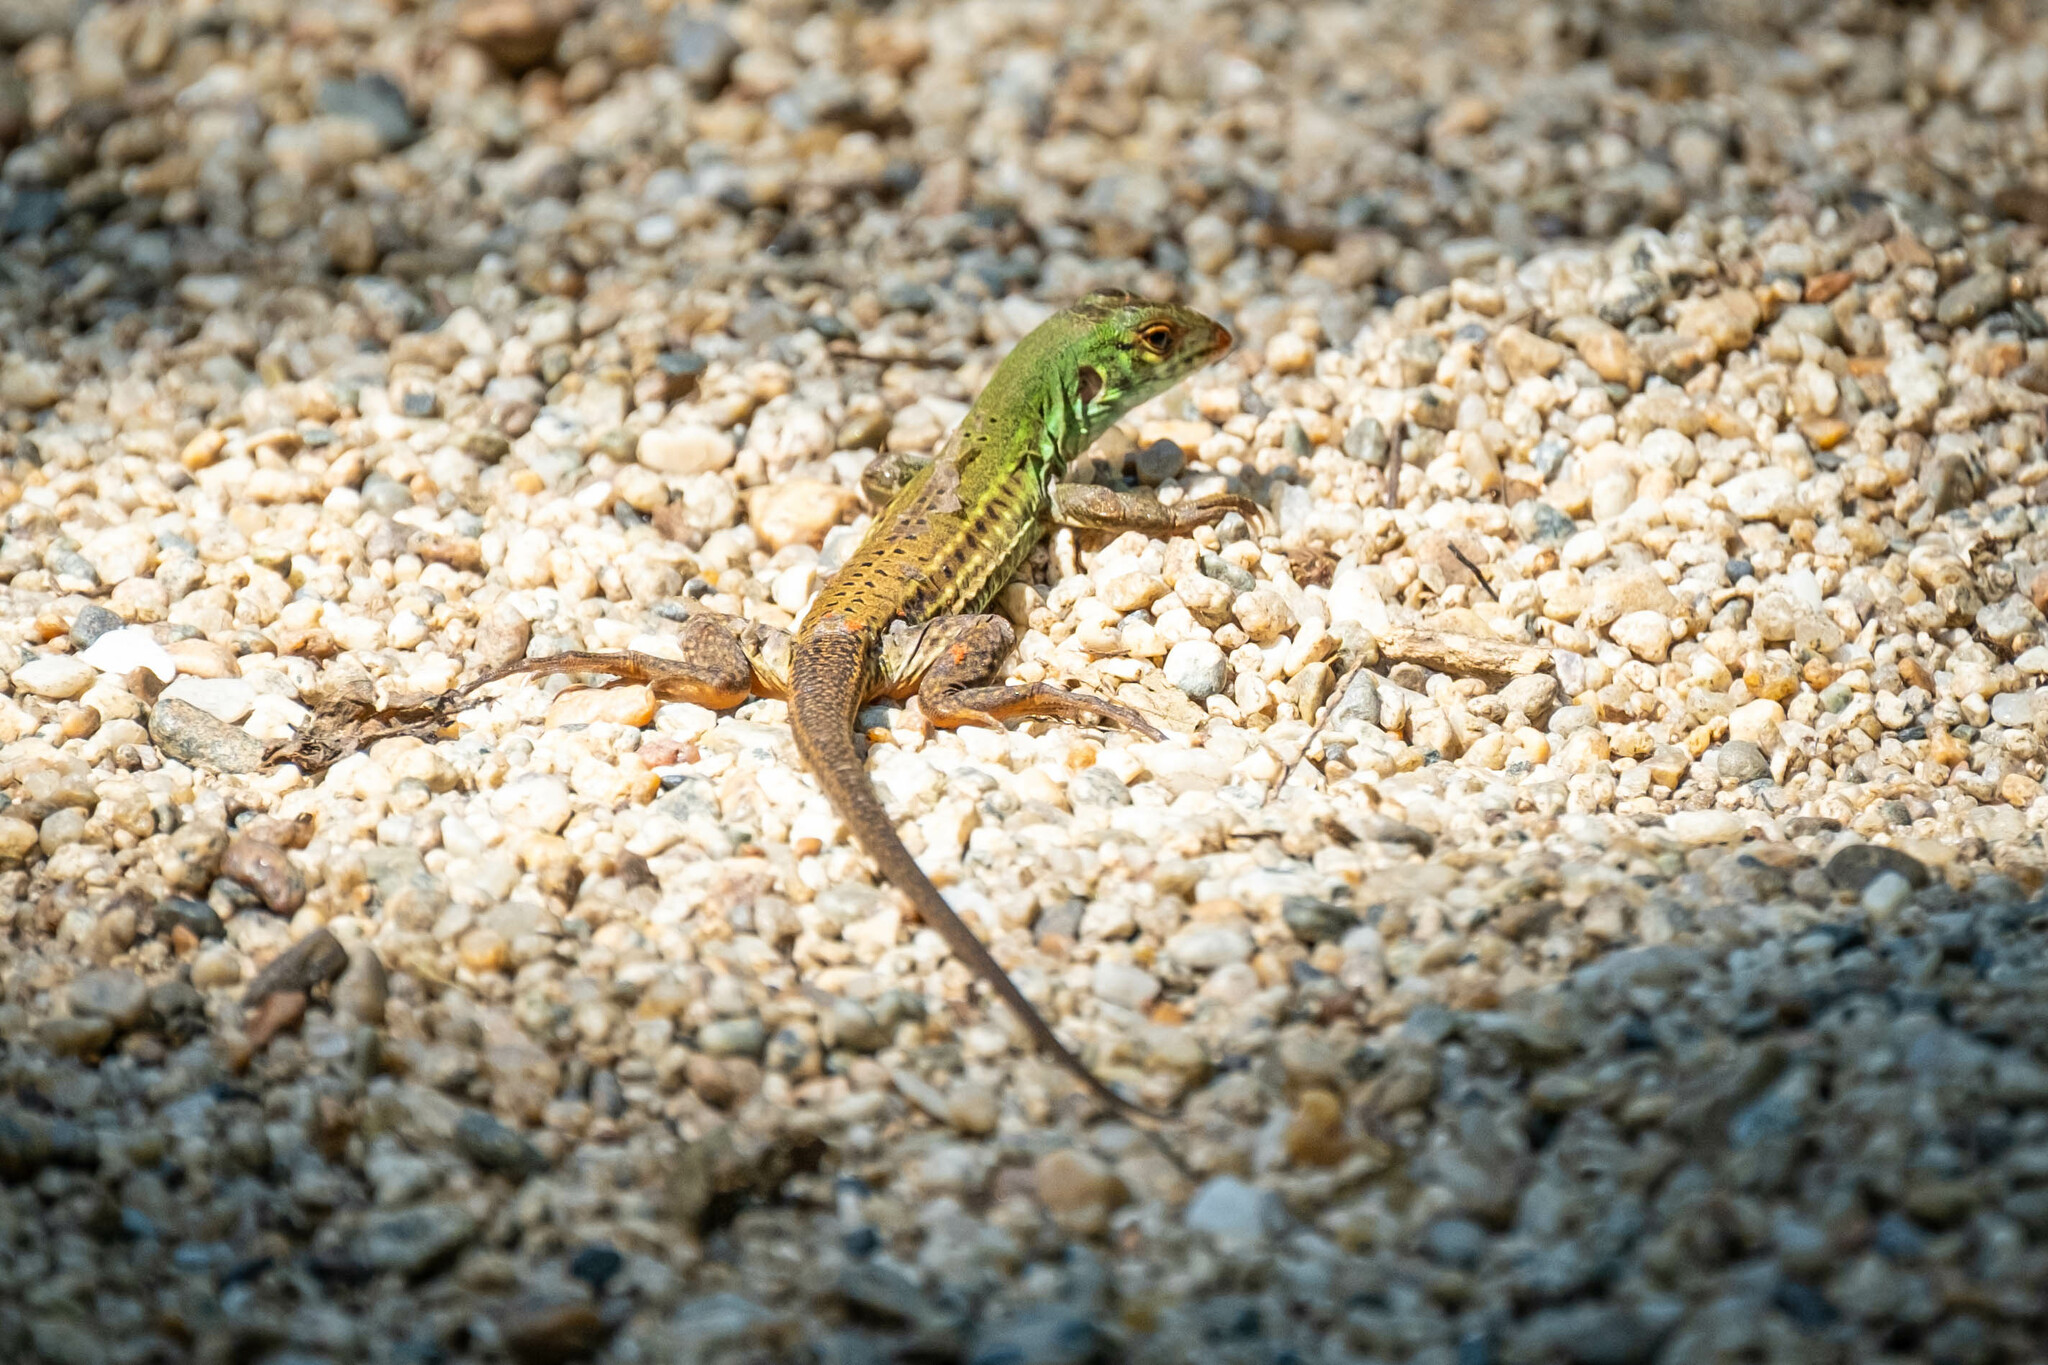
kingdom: Animalia
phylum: Chordata
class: Squamata
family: Teiidae
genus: Ameiva
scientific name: Ameiva bifrontata
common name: Cope's ameiva
